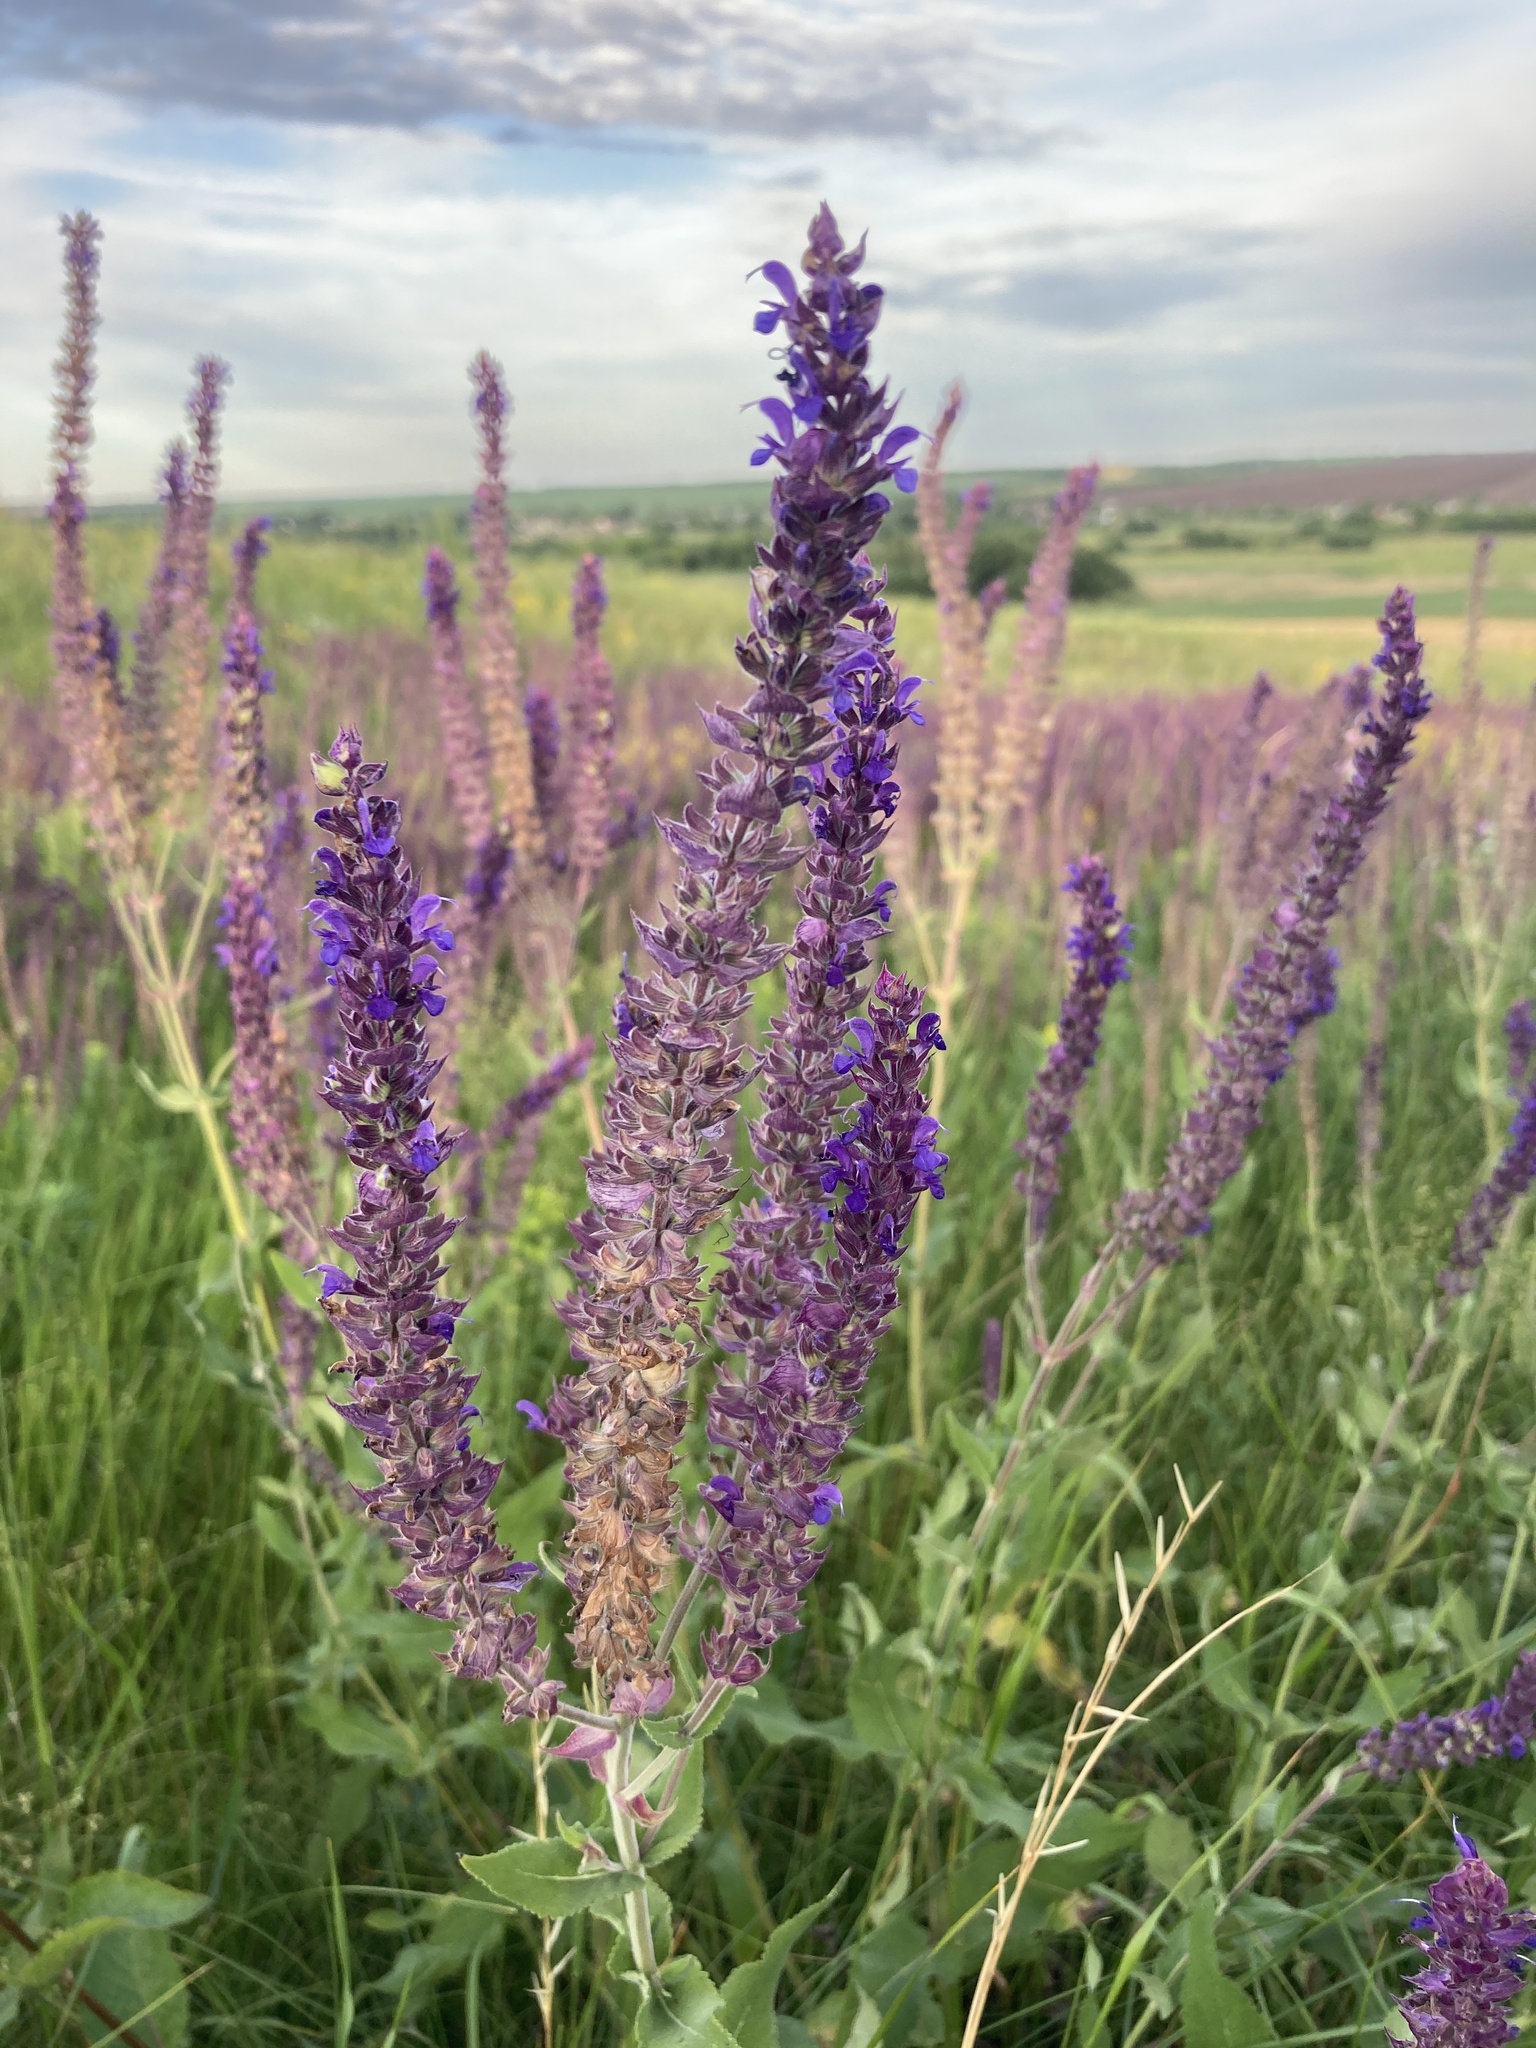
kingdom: Plantae
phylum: Tracheophyta
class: Magnoliopsida
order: Lamiales
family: Lamiaceae
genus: Salvia
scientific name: Salvia nemorosa
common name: Balkan clary
